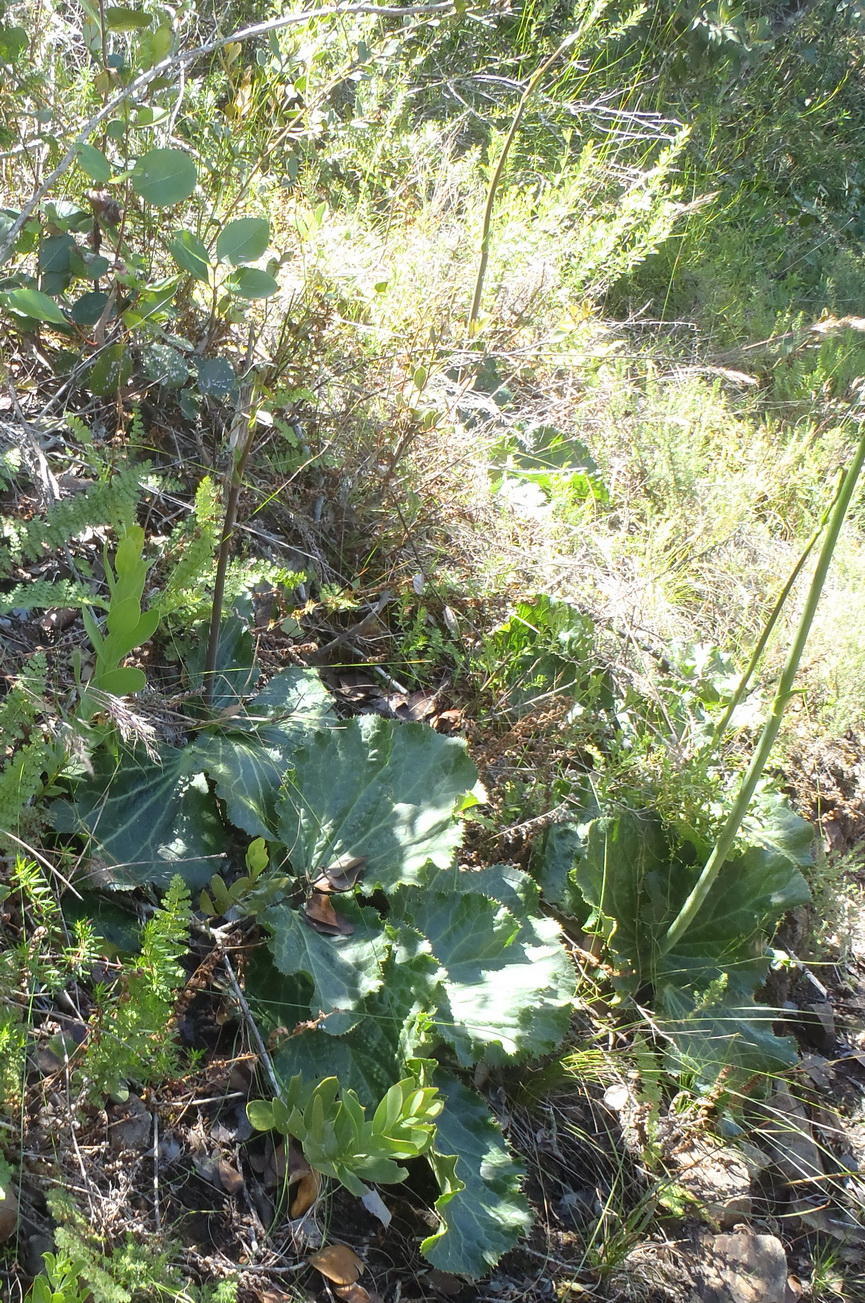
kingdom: Plantae
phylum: Tracheophyta
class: Magnoliopsida
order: Apiales
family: Apiaceae
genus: Lichtensteinia
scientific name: Lichtensteinia latifolia
